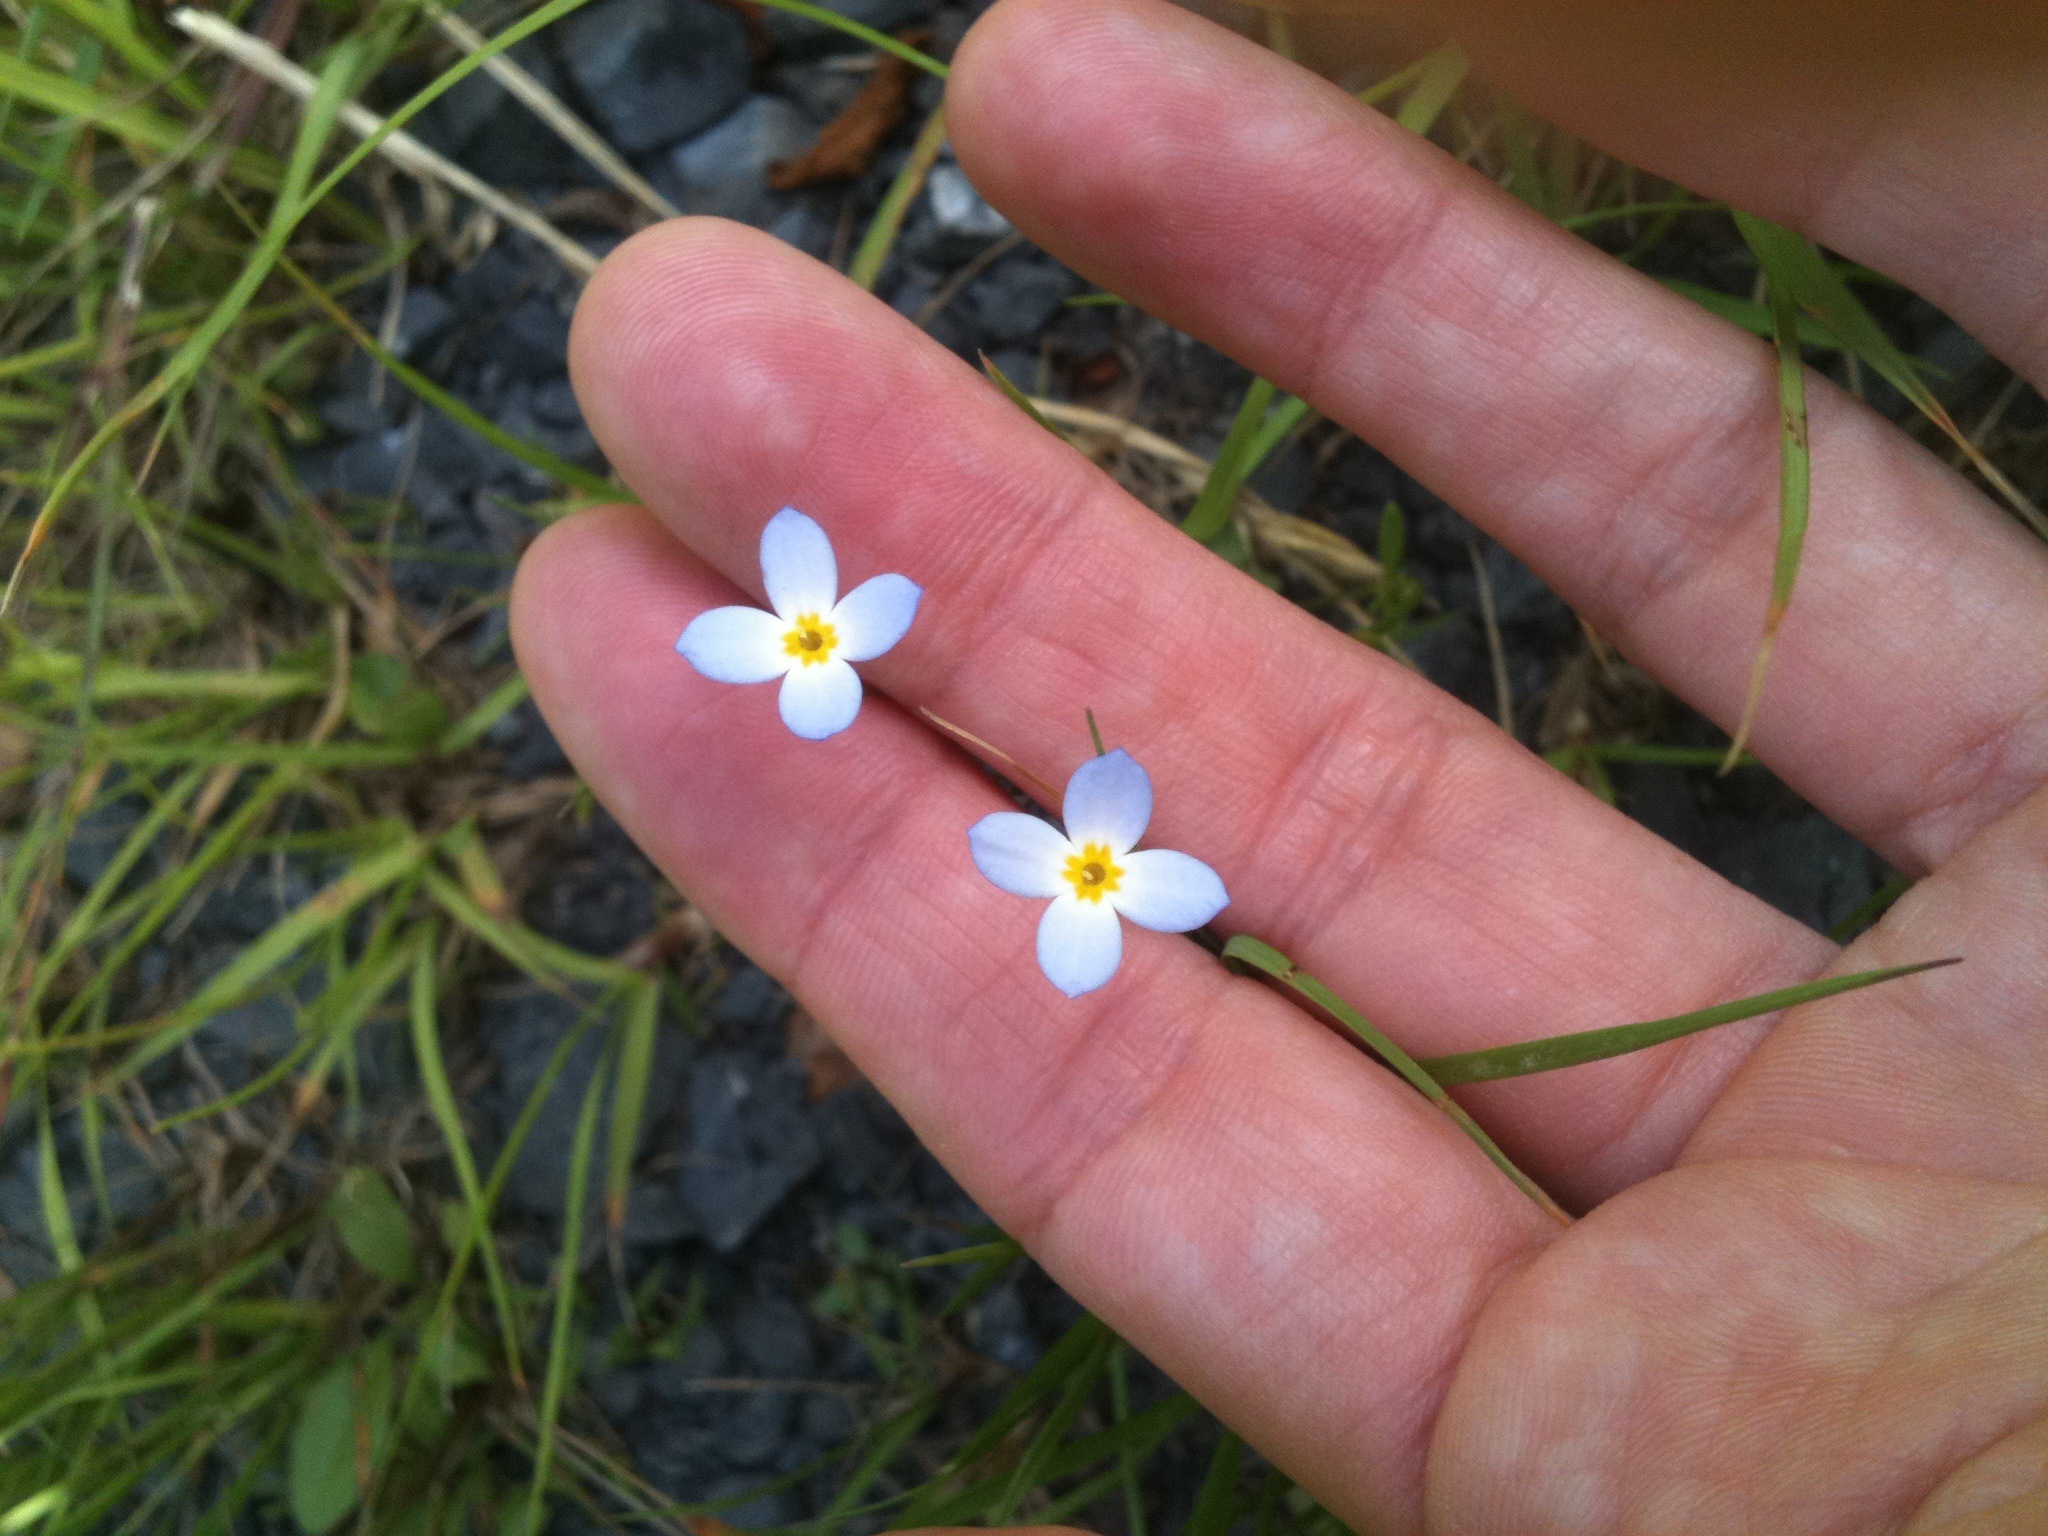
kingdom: Plantae
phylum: Tracheophyta
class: Magnoliopsida
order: Gentianales
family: Rubiaceae
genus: Houstonia
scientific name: Houstonia caerulea
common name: Bluets
